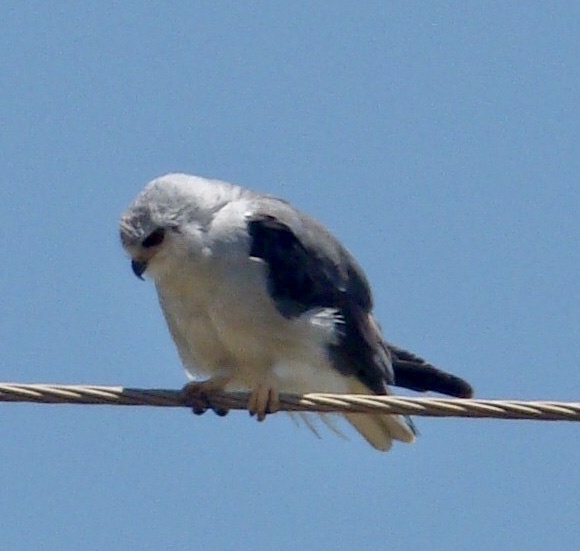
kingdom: Animalia
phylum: Chordata
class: Aves
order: Accipitriformes
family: Accipitridae
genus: Elanus
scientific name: Elanus caeruleus
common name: Black-winged kite
